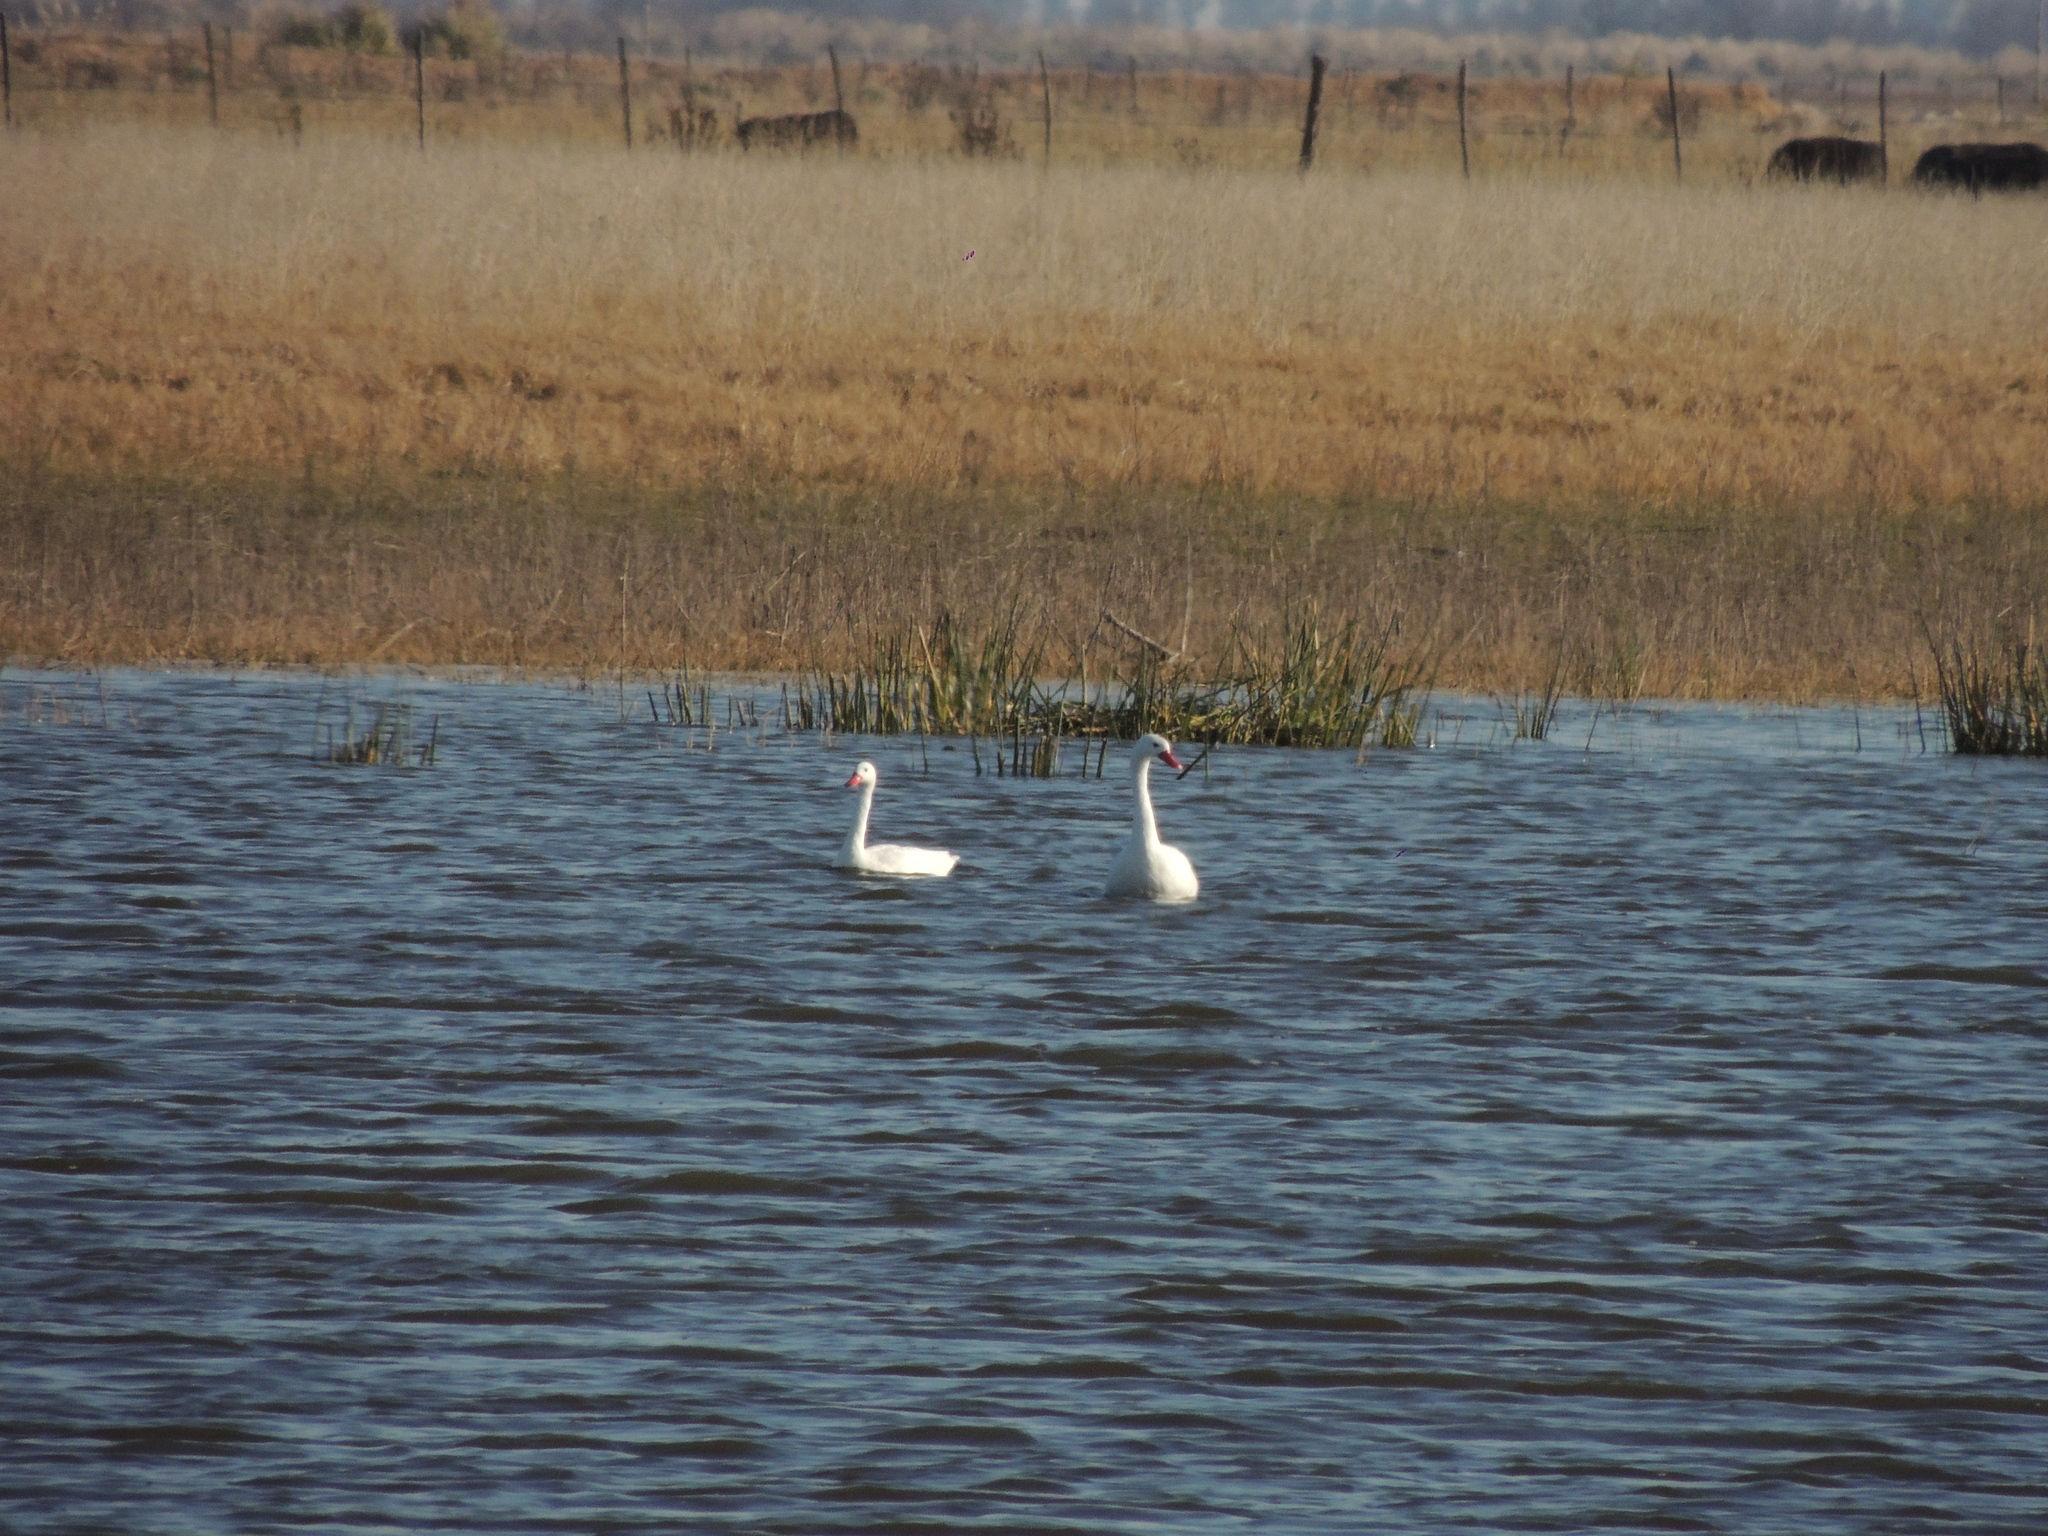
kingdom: Animalia
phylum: Chordata
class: Aves
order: Anseriformes
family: Anatidae
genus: Coscoroba
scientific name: Coscoroba coscoroba
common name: Coscoroba swan
